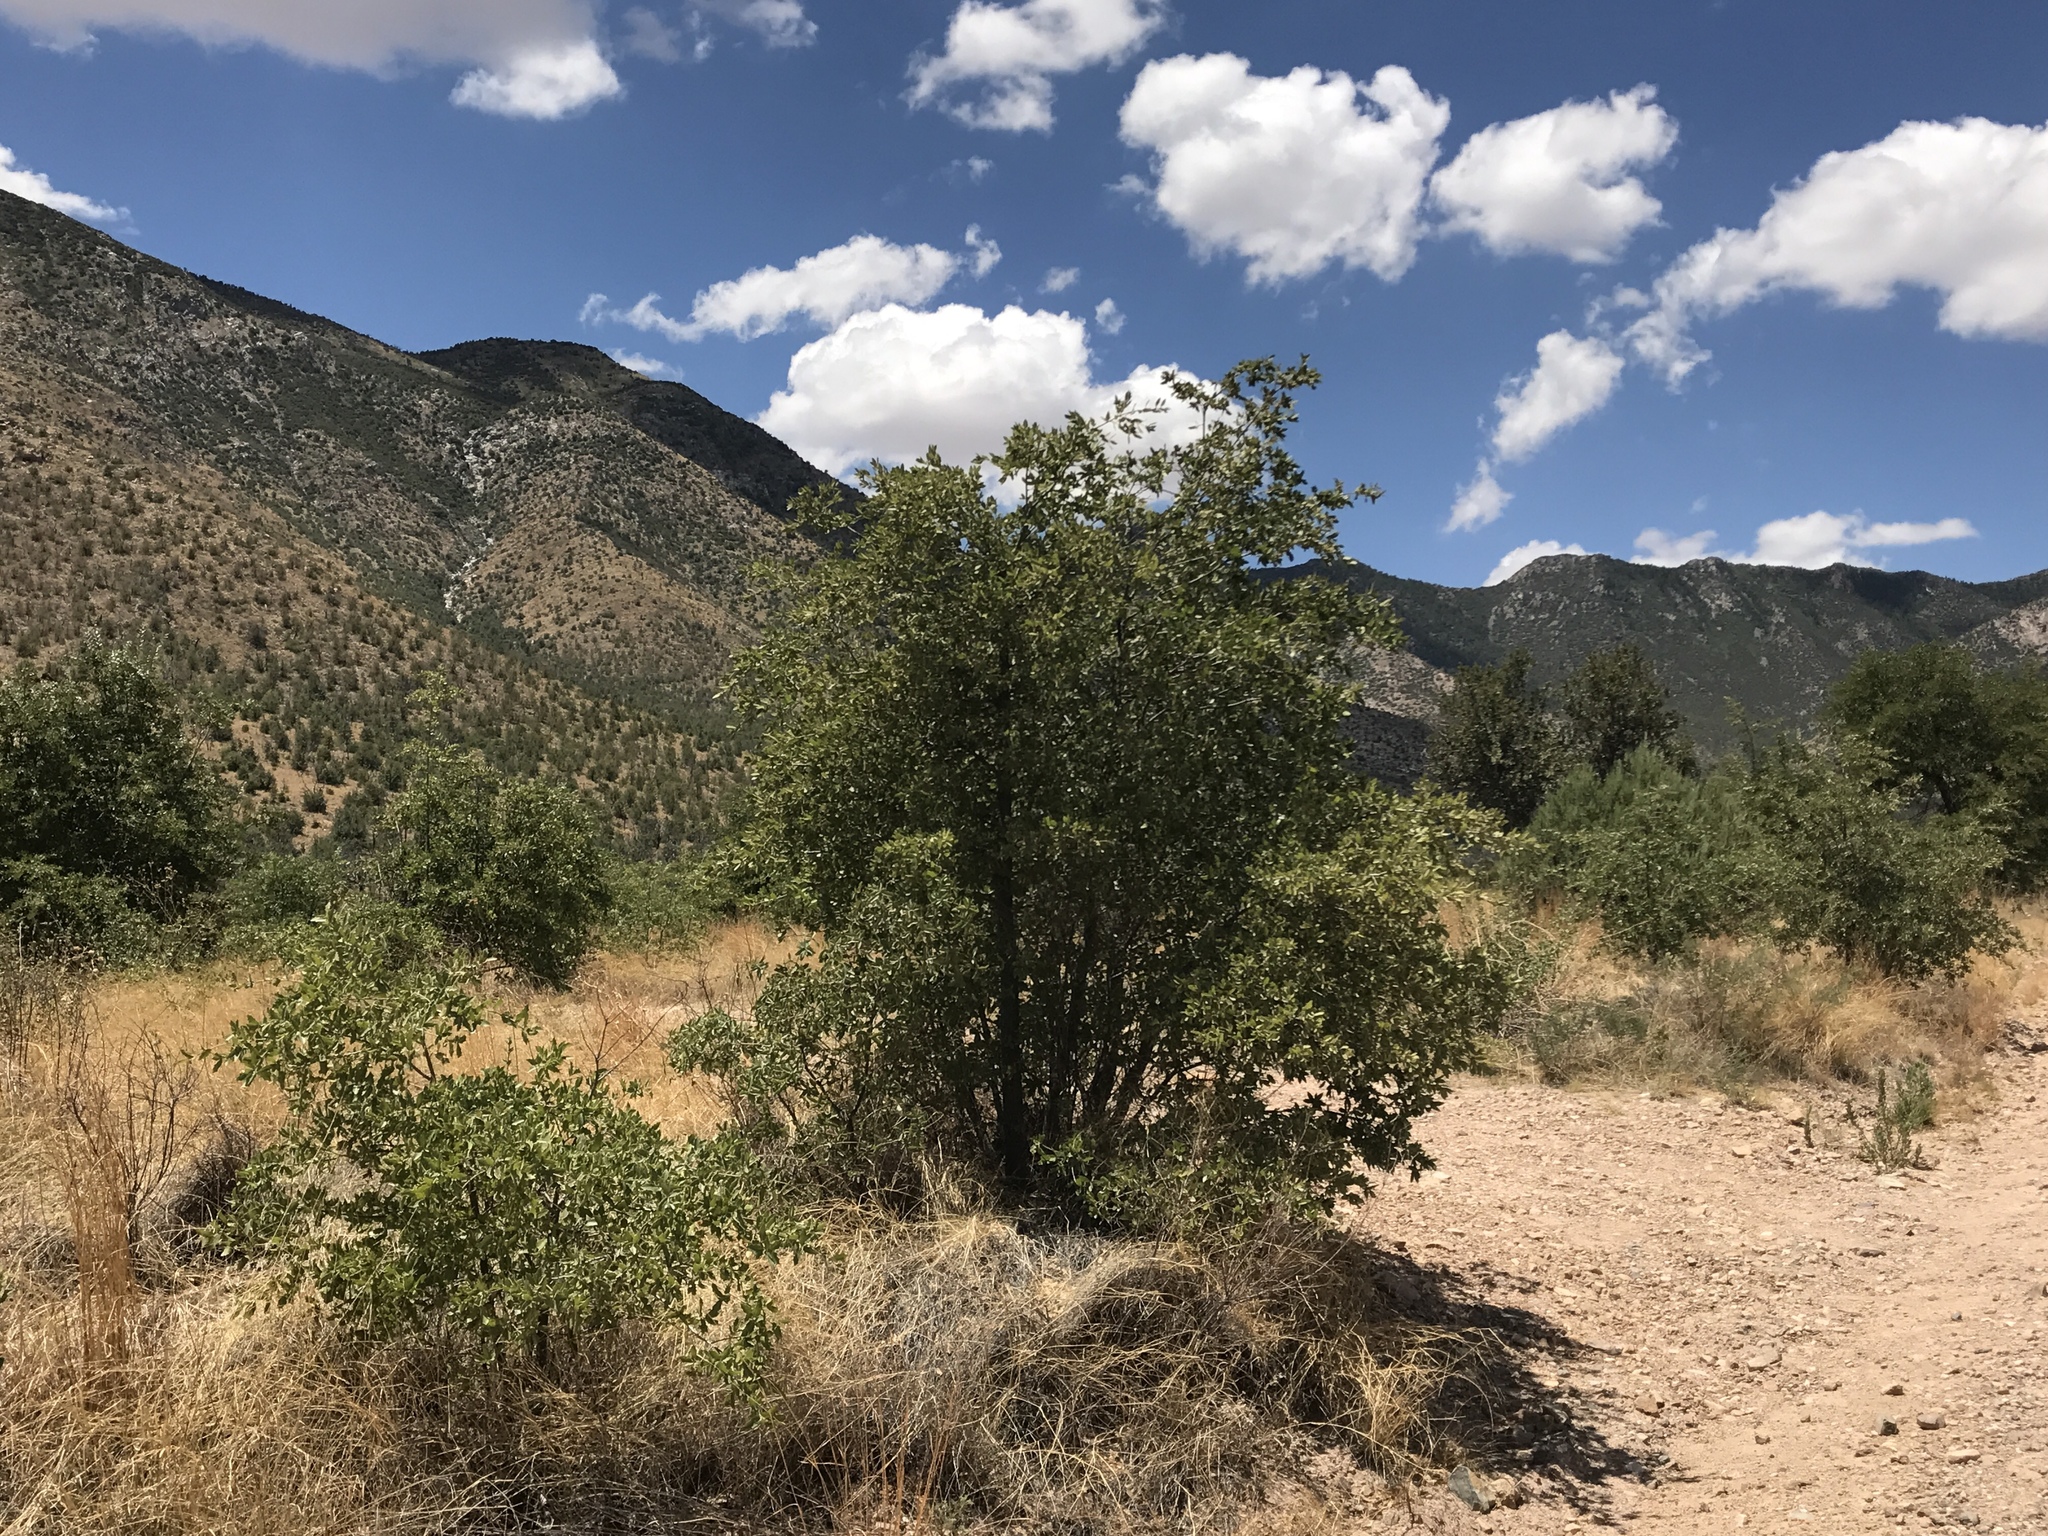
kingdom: Plantae
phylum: Tracheophyta
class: Magnoliopsida
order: Fagales
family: Fagaceae
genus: Quercus
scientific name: Quercus emoryi
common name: Emory oak
